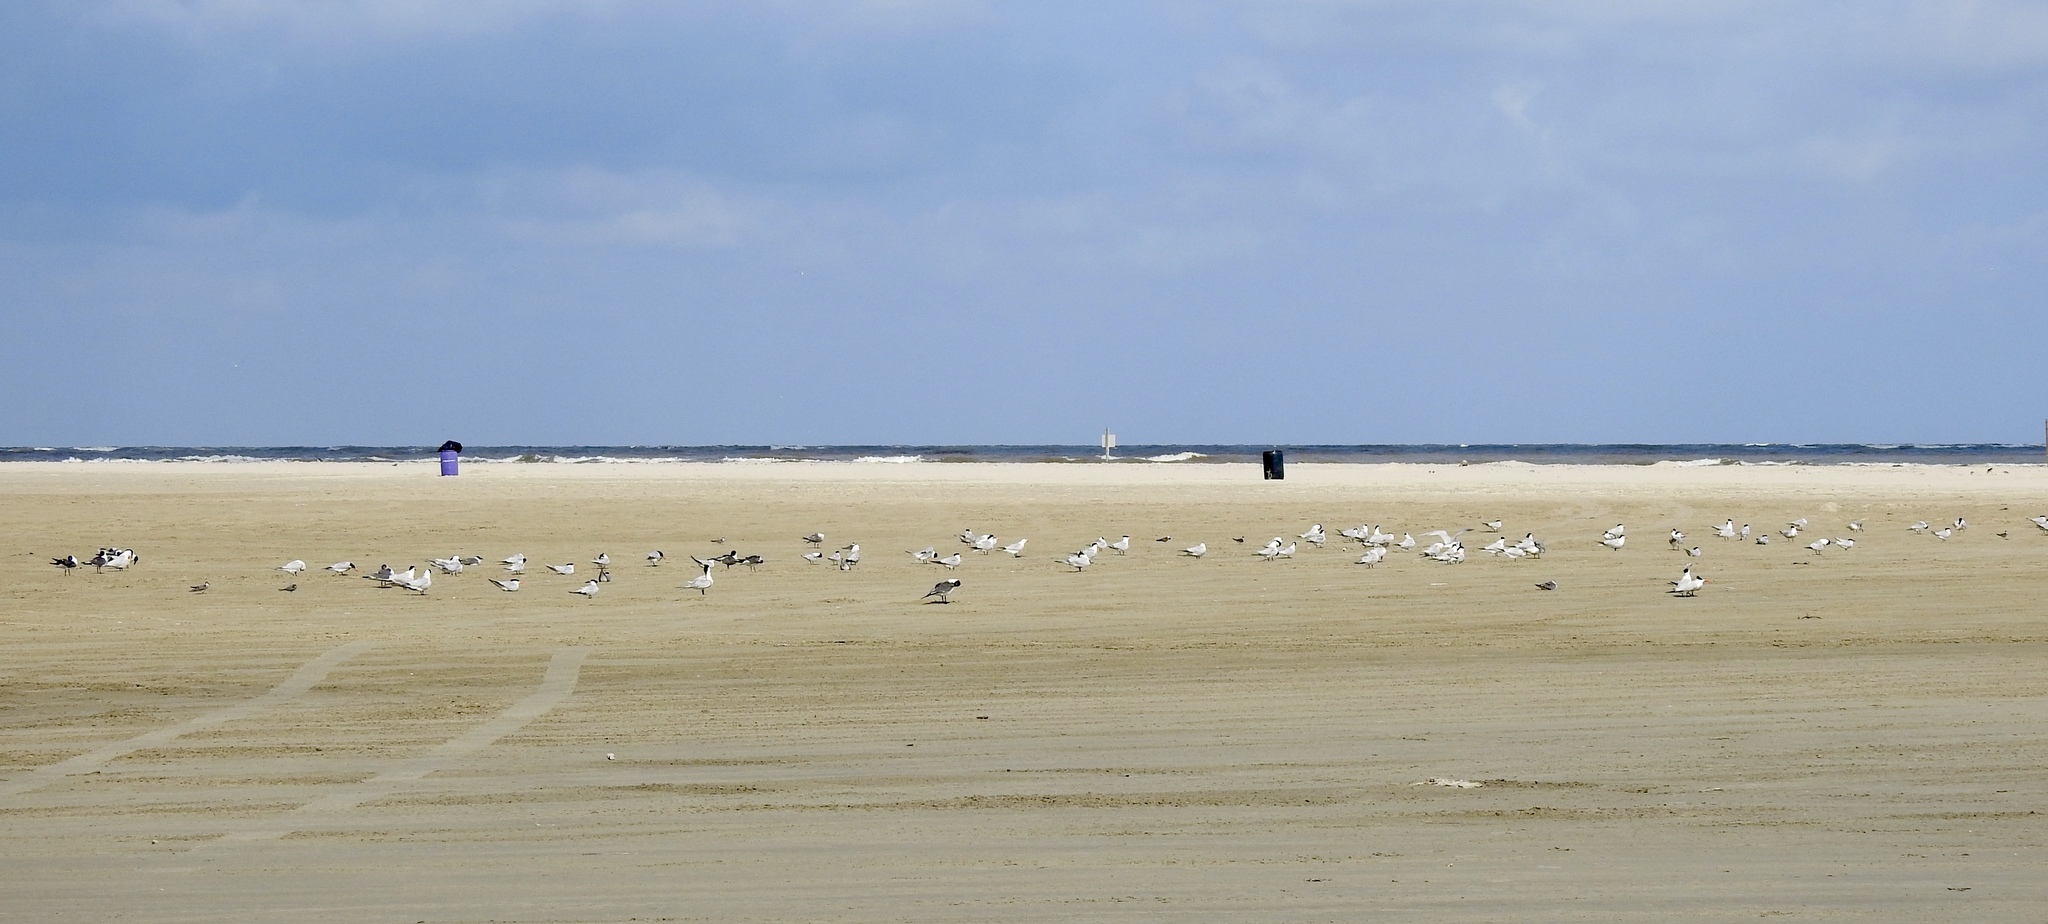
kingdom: Animalia
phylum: Chordata
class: Aves
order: Charadriiformes
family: Laridae
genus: Thalasseus
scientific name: Thalasseus maximus
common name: Royal tern
